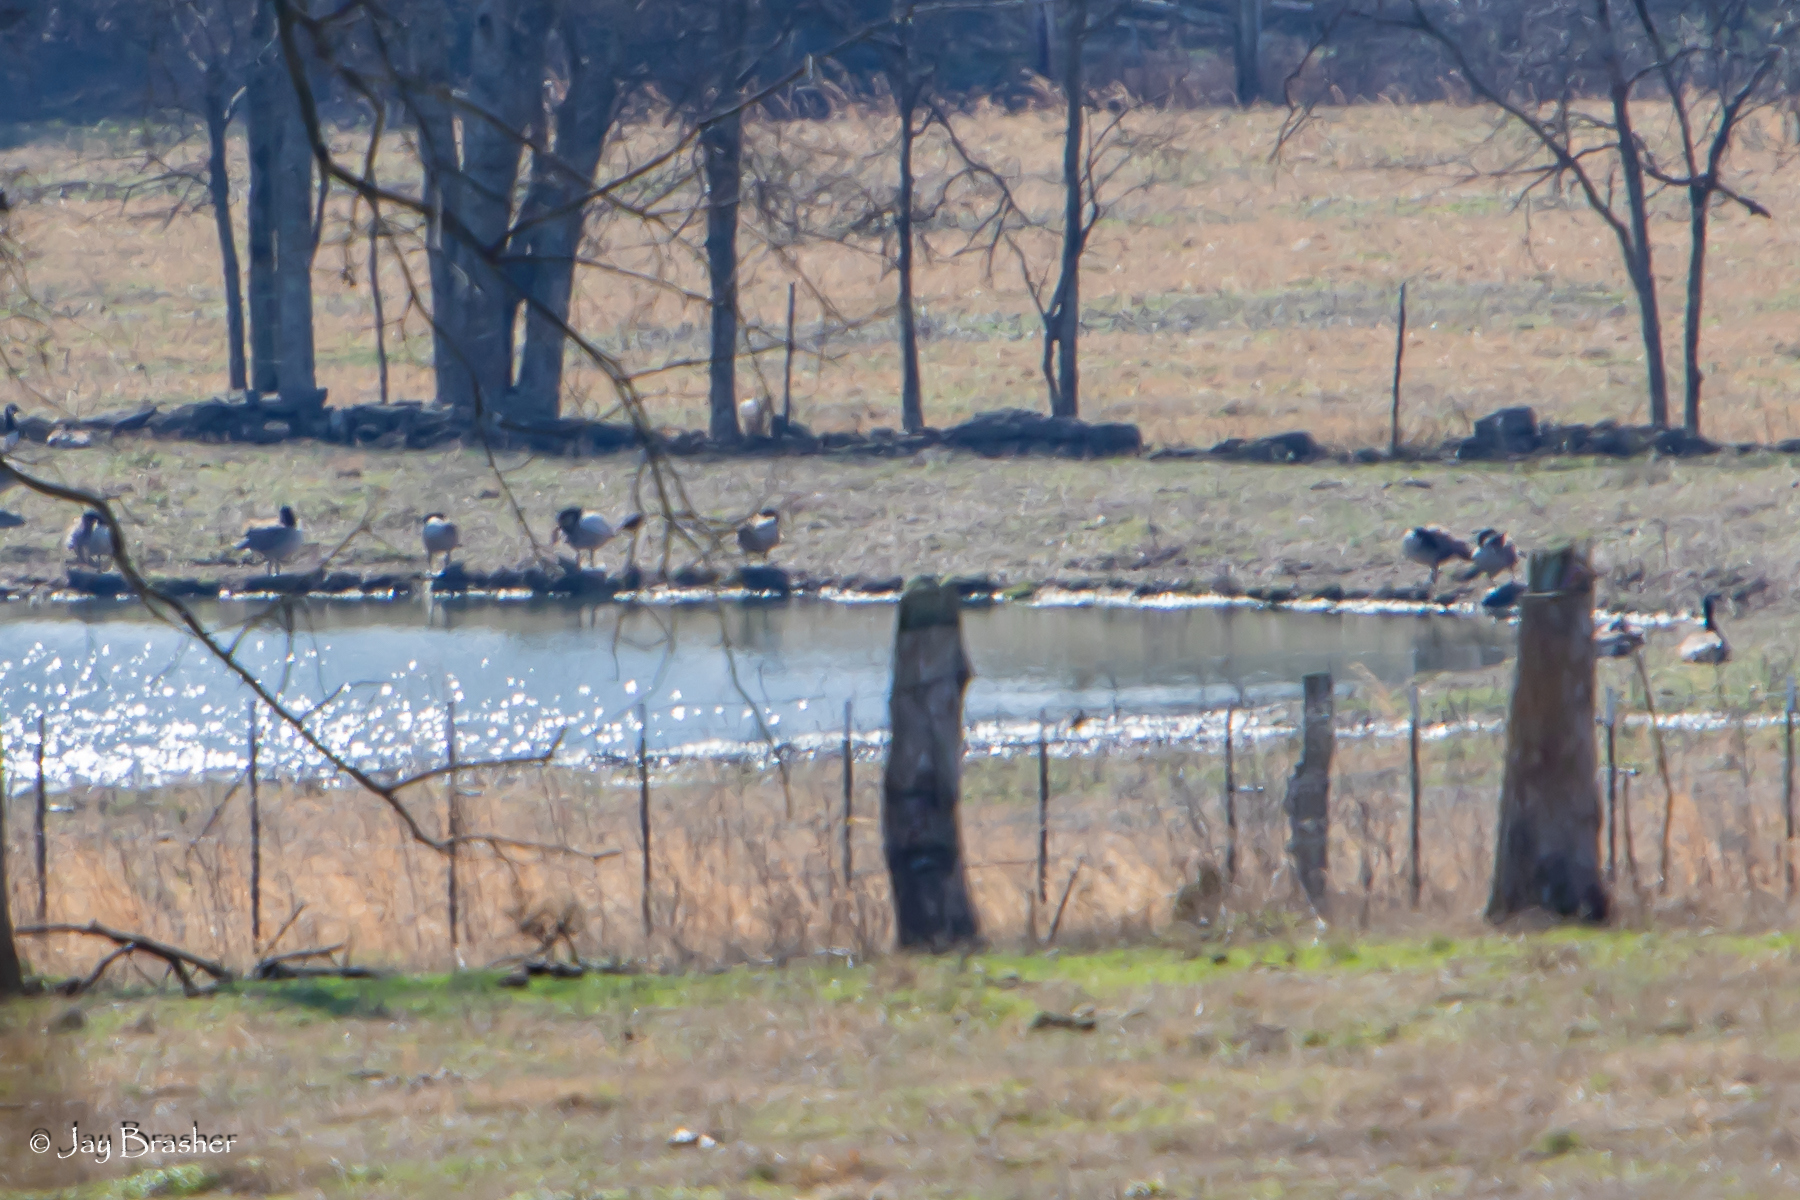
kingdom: Animalia
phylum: Chordata
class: Aves
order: Anseriformes
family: Anatidae
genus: Branta
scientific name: Branta canadensis
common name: Canada goose
